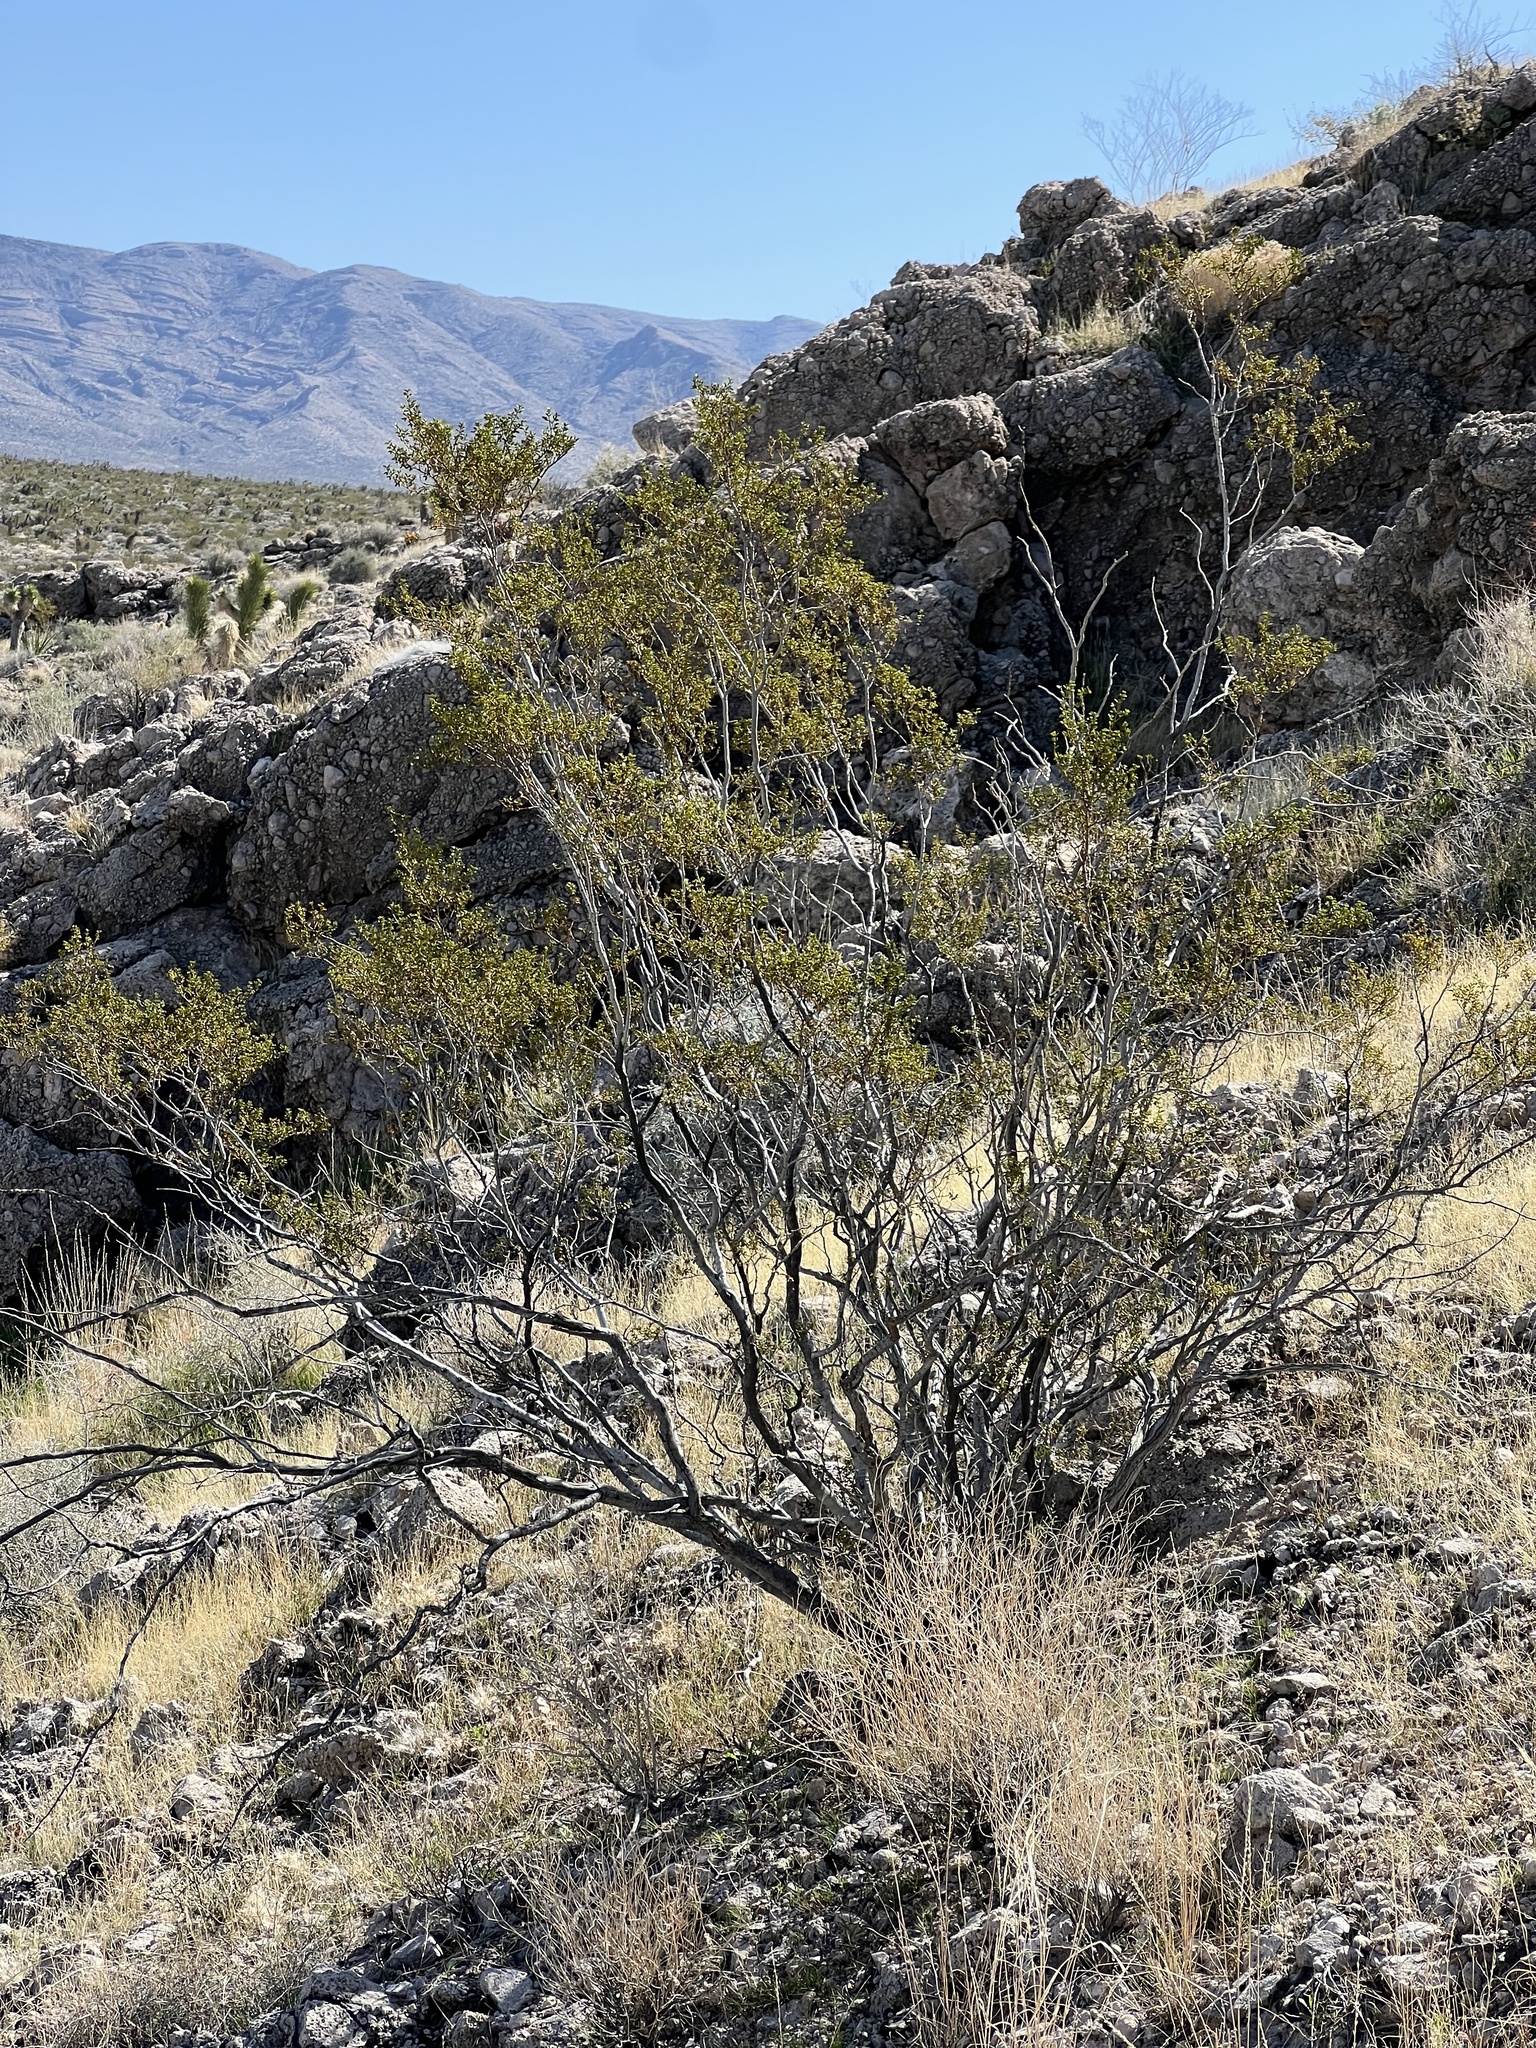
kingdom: Plantae
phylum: Tracheophyta
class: Magnoliopsida
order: Zygophyllales
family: Zygophyllaceae
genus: Larrea
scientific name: Larrea tridentata
